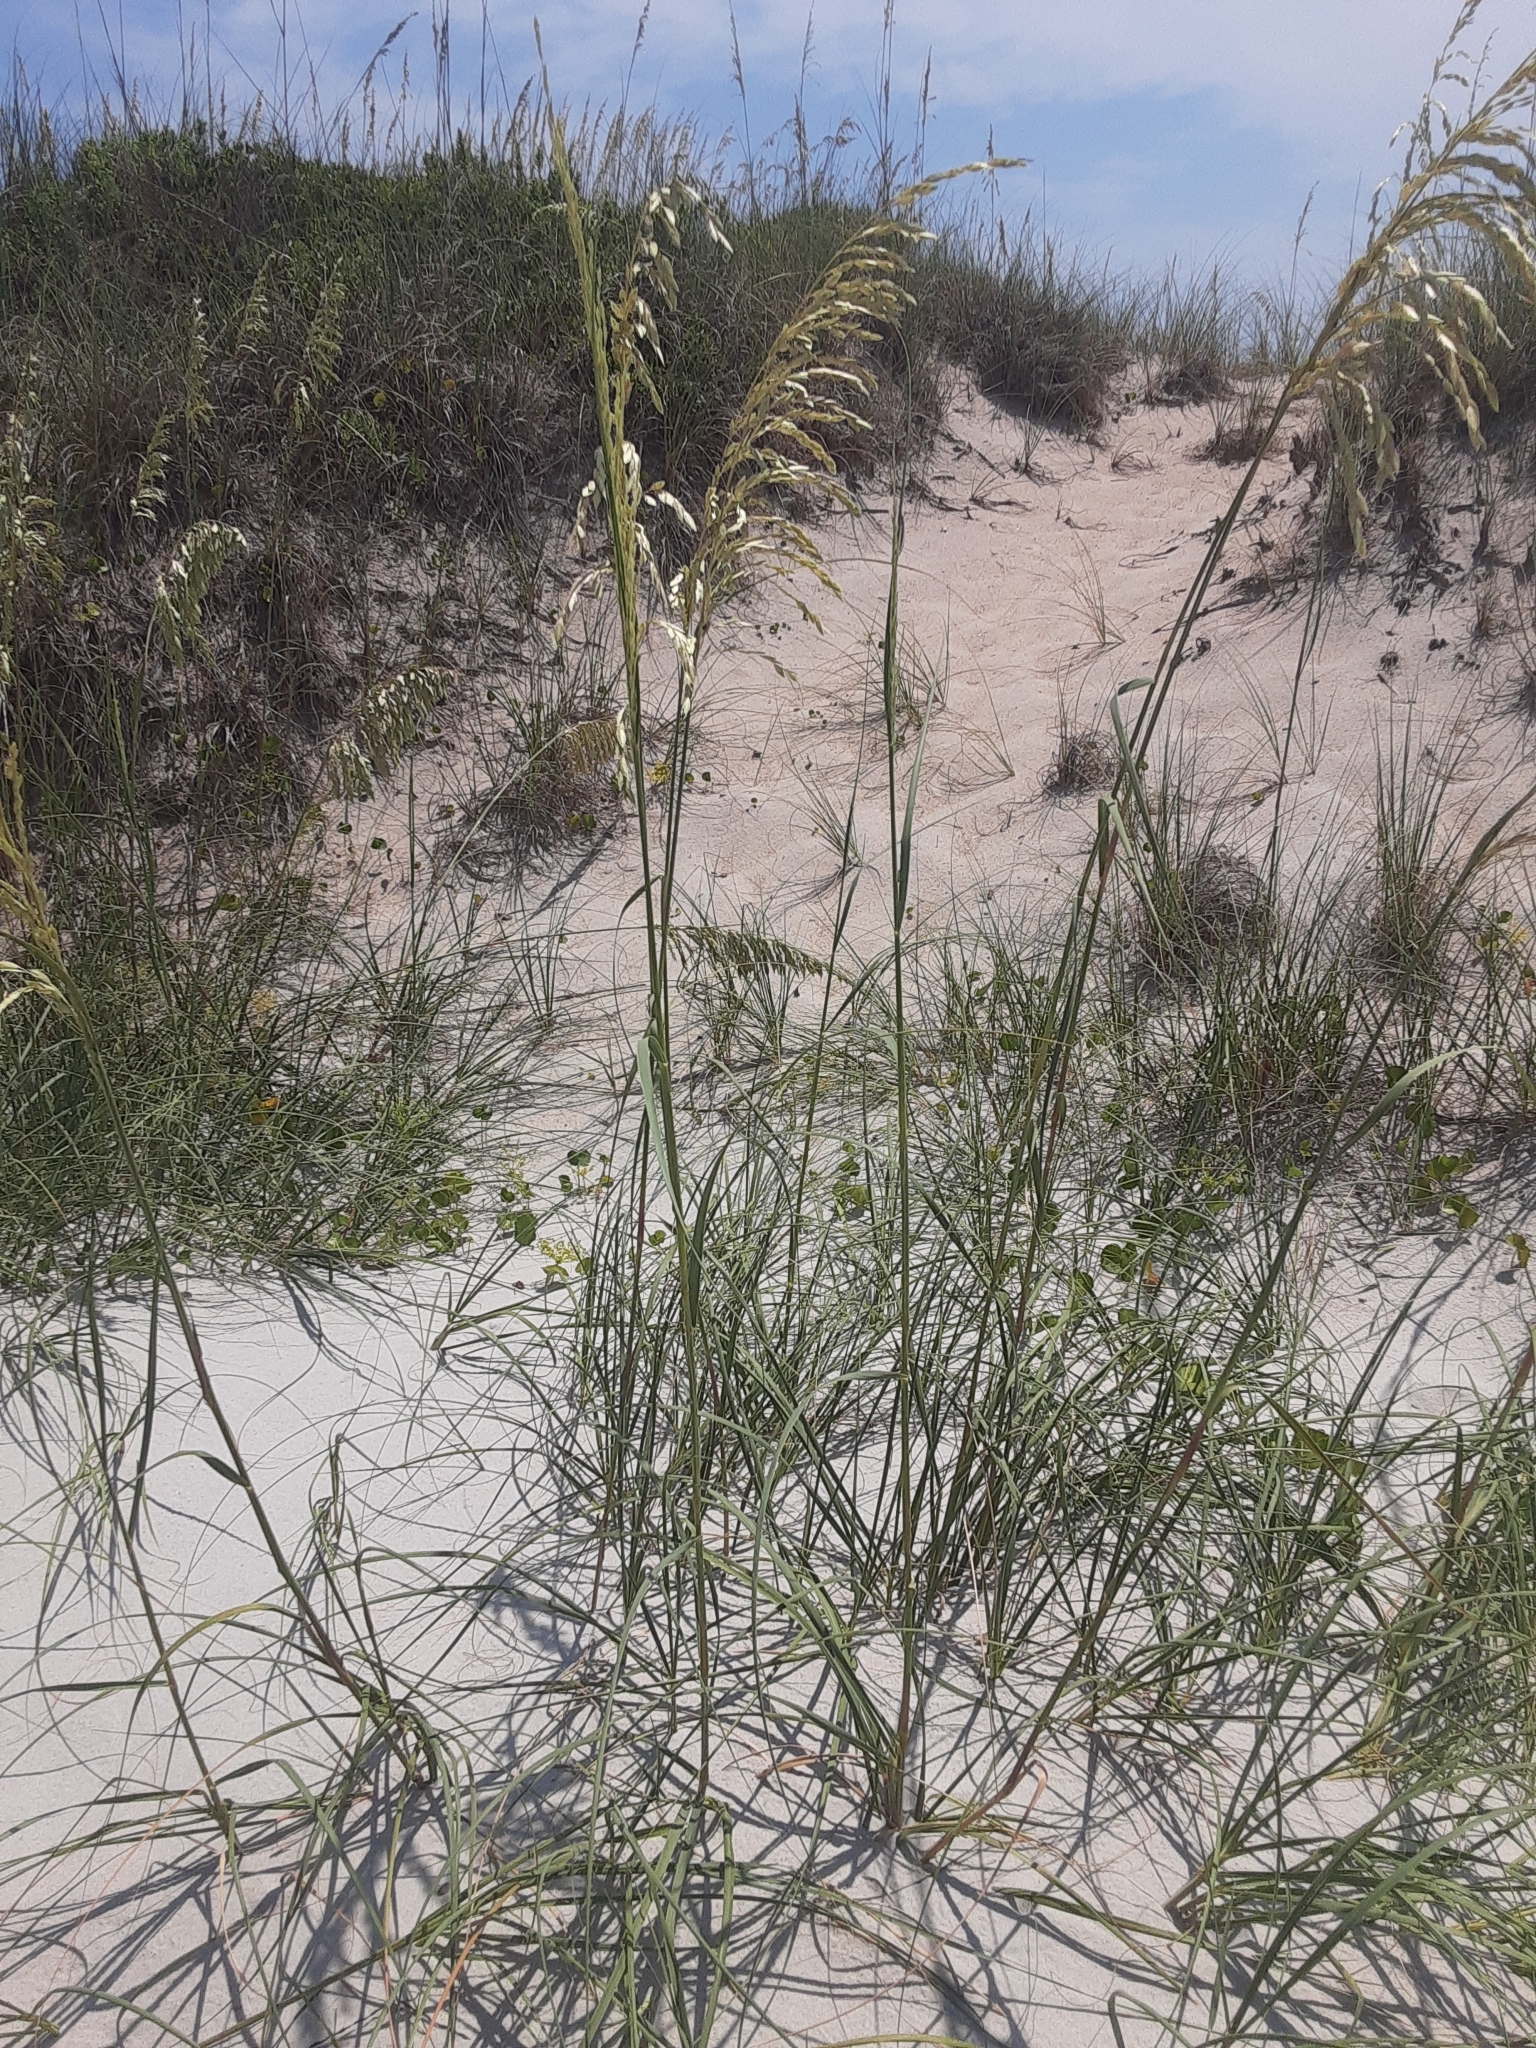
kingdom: Plantae
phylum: Tracheophyta
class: Liliopsida
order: Poales
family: Poaceae
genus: Uniola
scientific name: Uniola paniculata
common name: Seaside-oats
